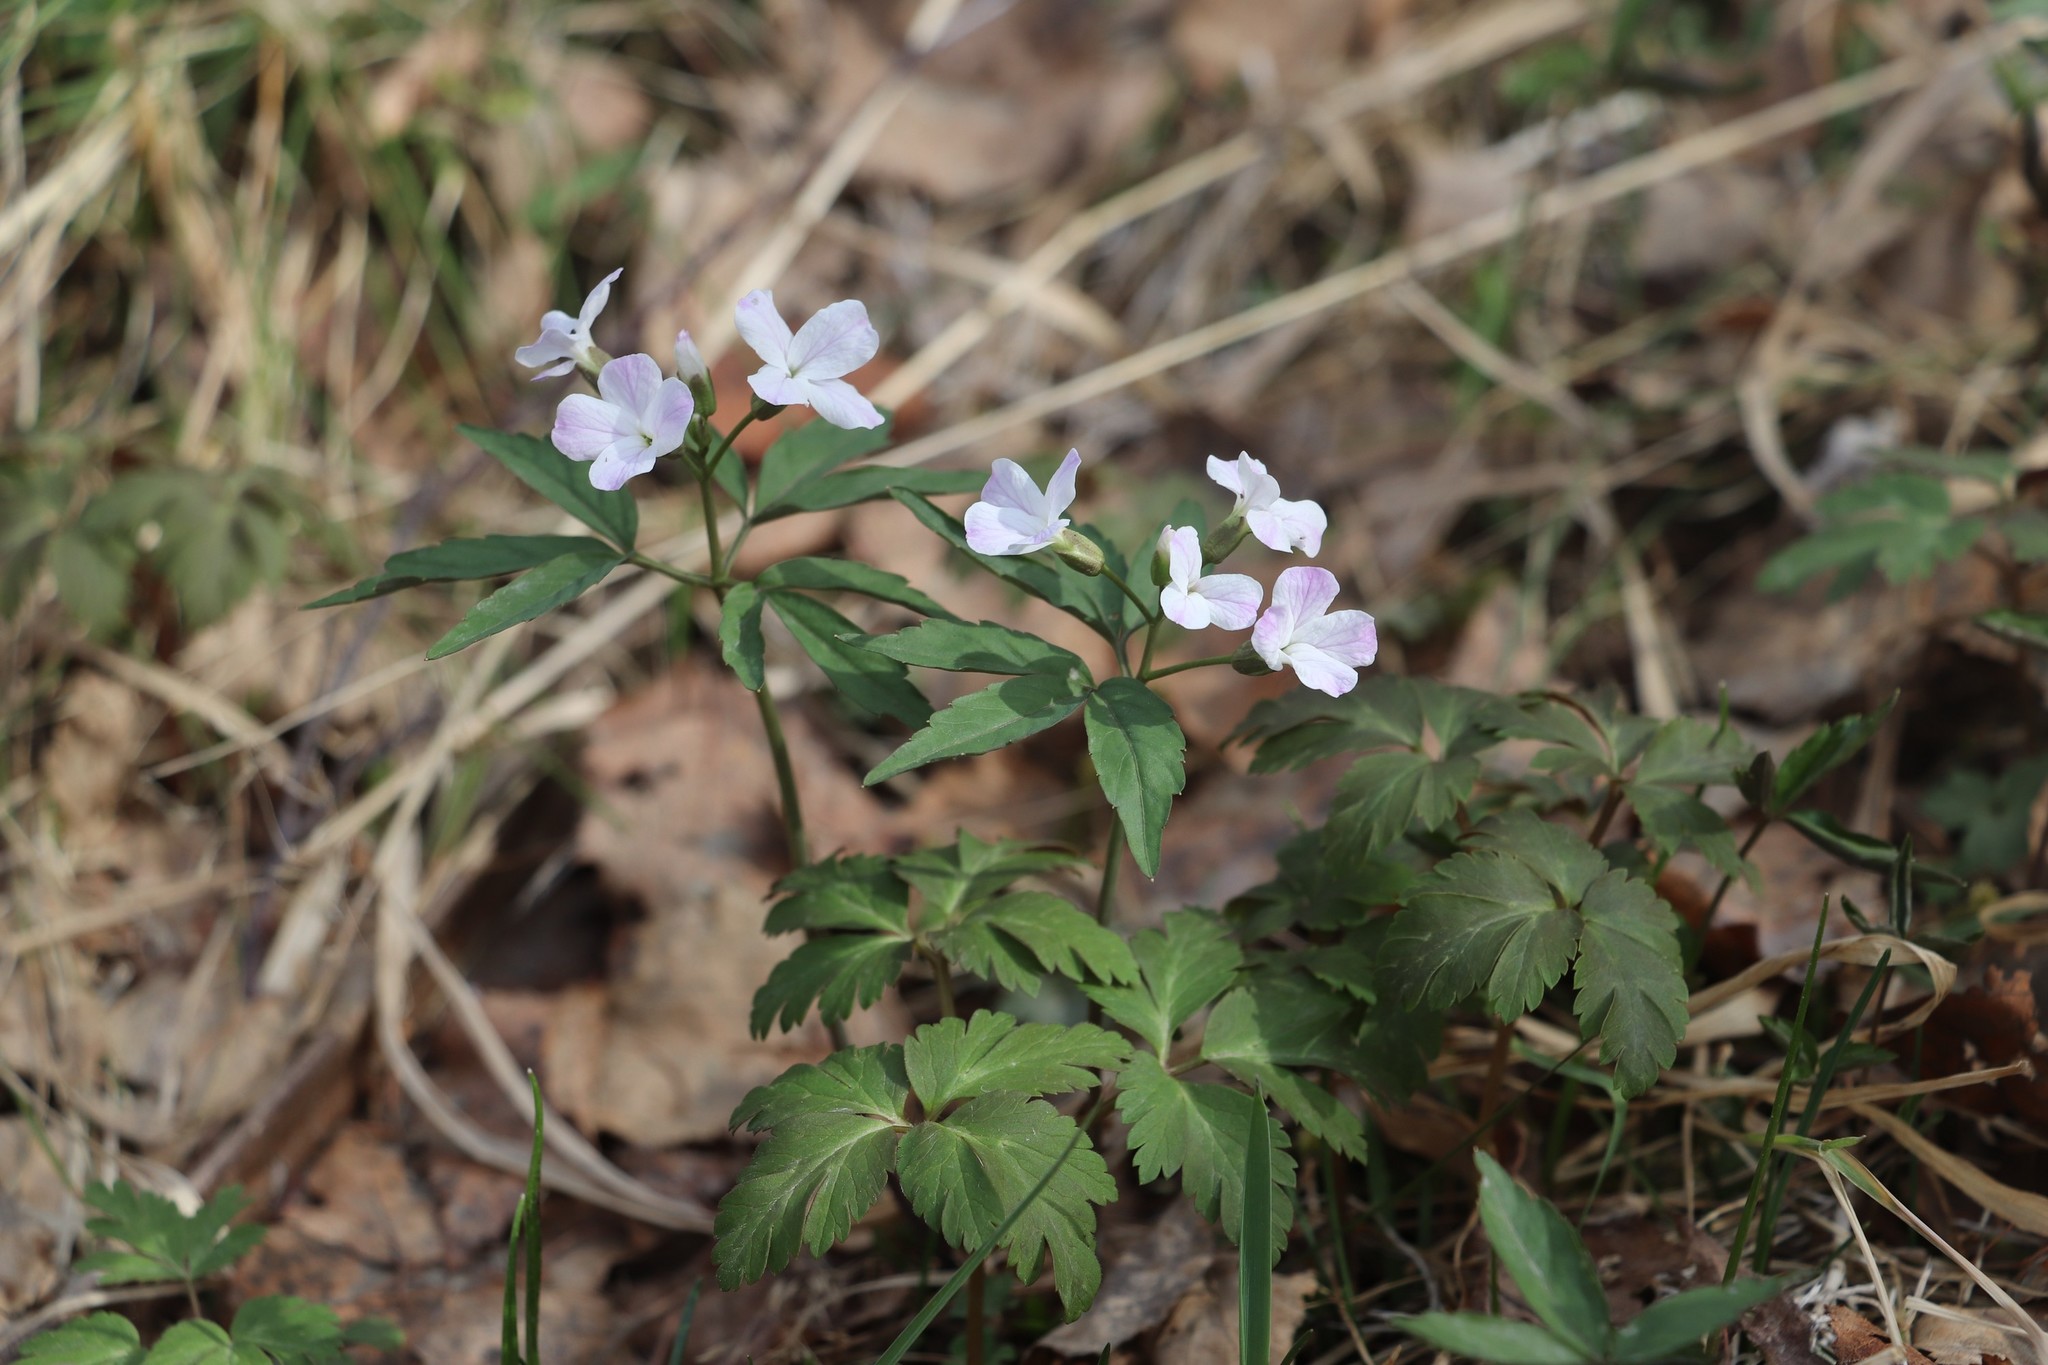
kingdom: Plantae
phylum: Tracheophyta
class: Magnoliopsida
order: Brassicales
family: Brassicaceae
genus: Cardamine
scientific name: Cardamine altaica
